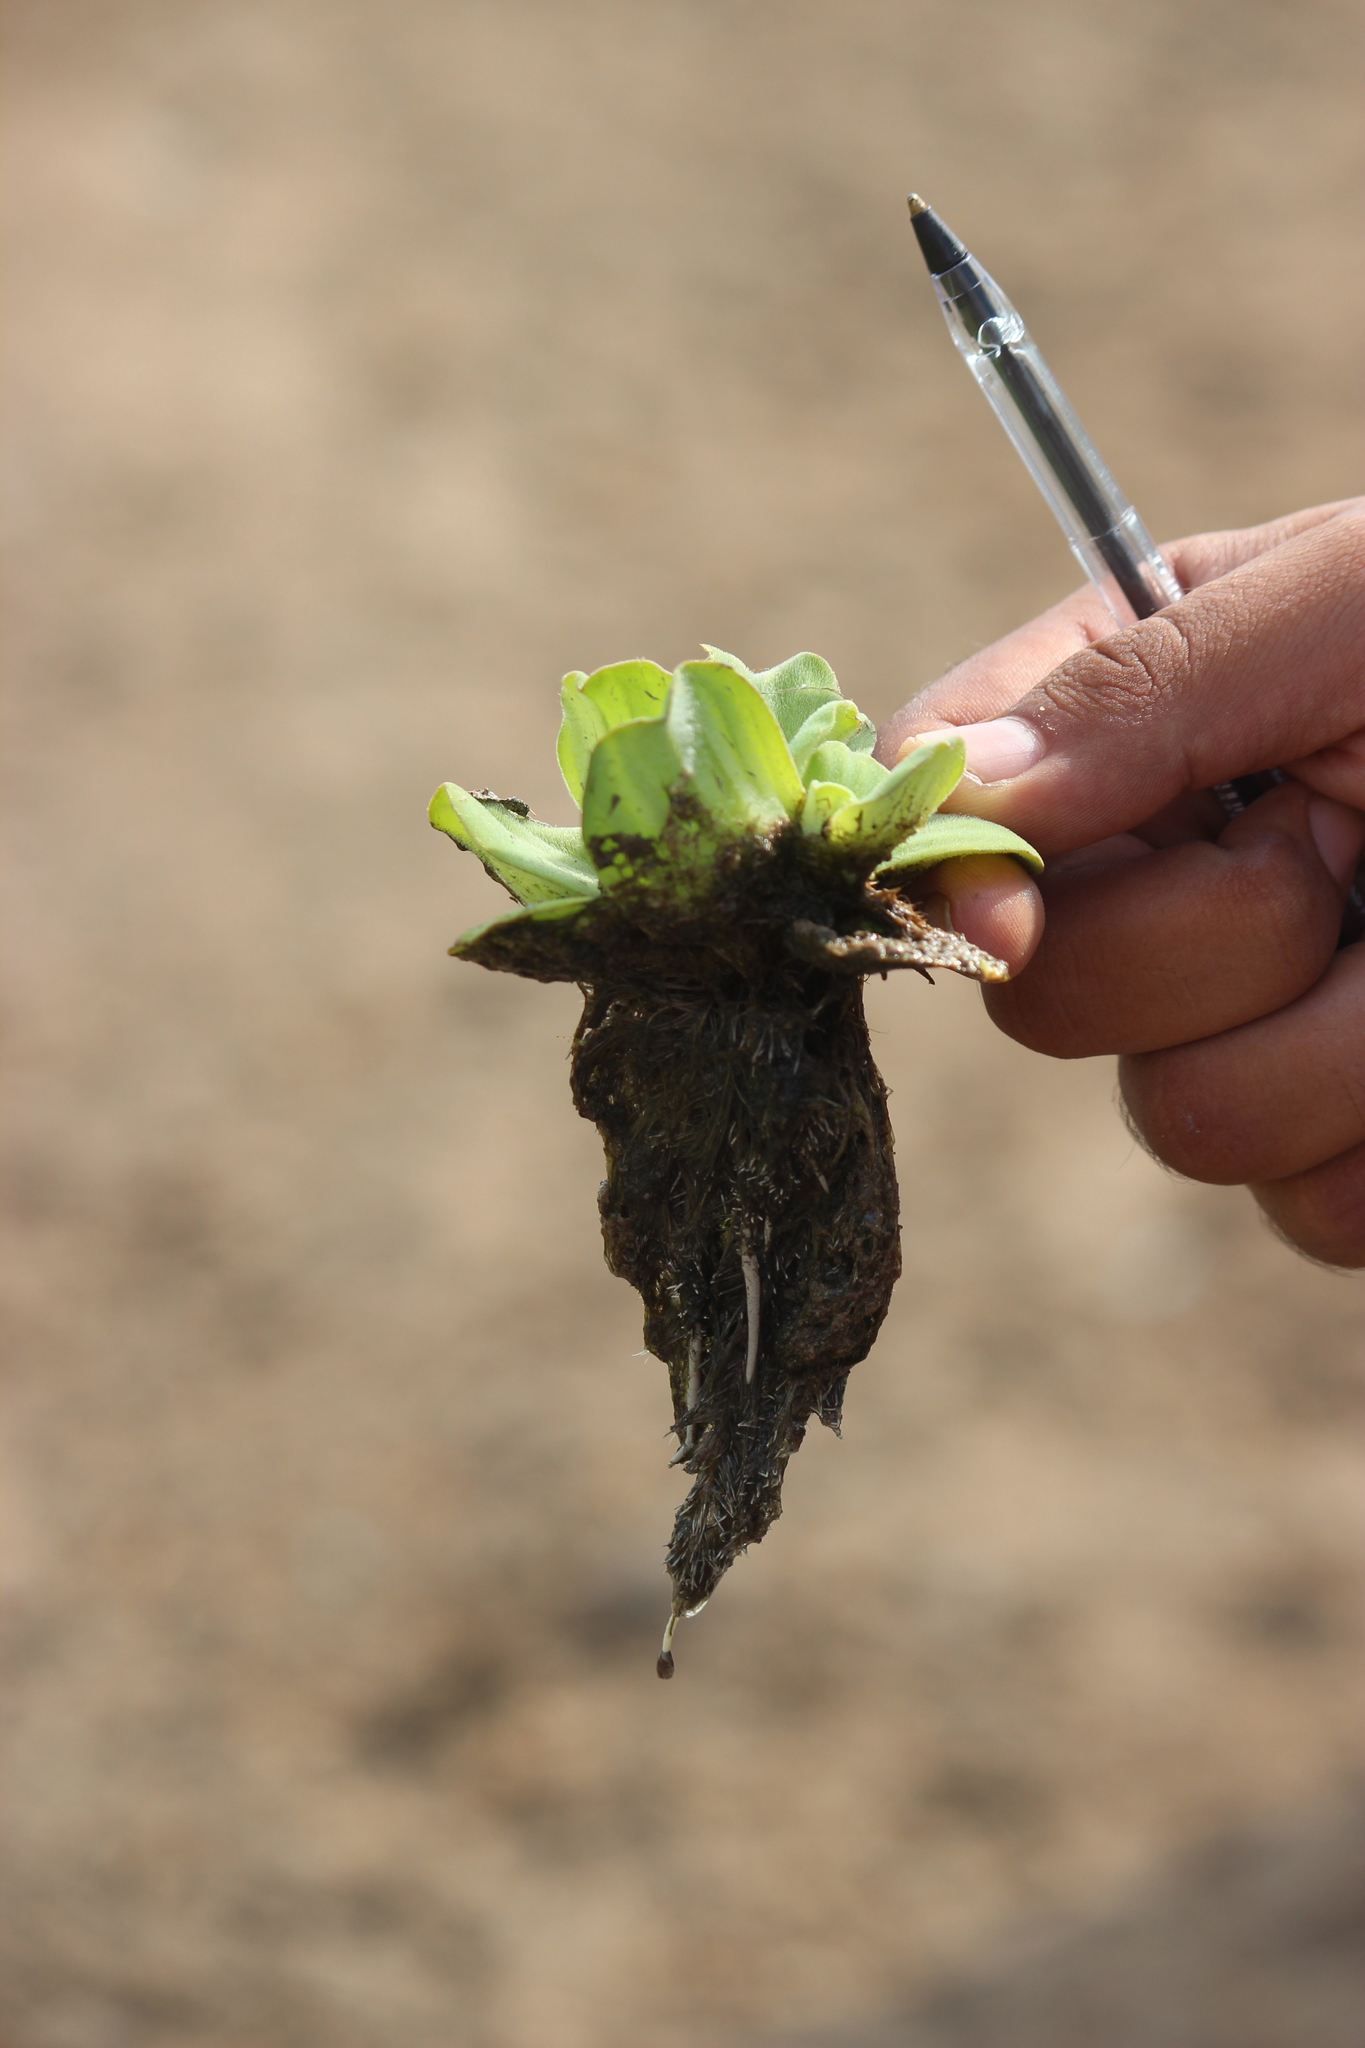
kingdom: Plantae
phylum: Tracheophyta
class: Liliopsida
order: Alismatales
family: Araceae
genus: Pistia
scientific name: Pistia stratiotes
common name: Water lettuce
